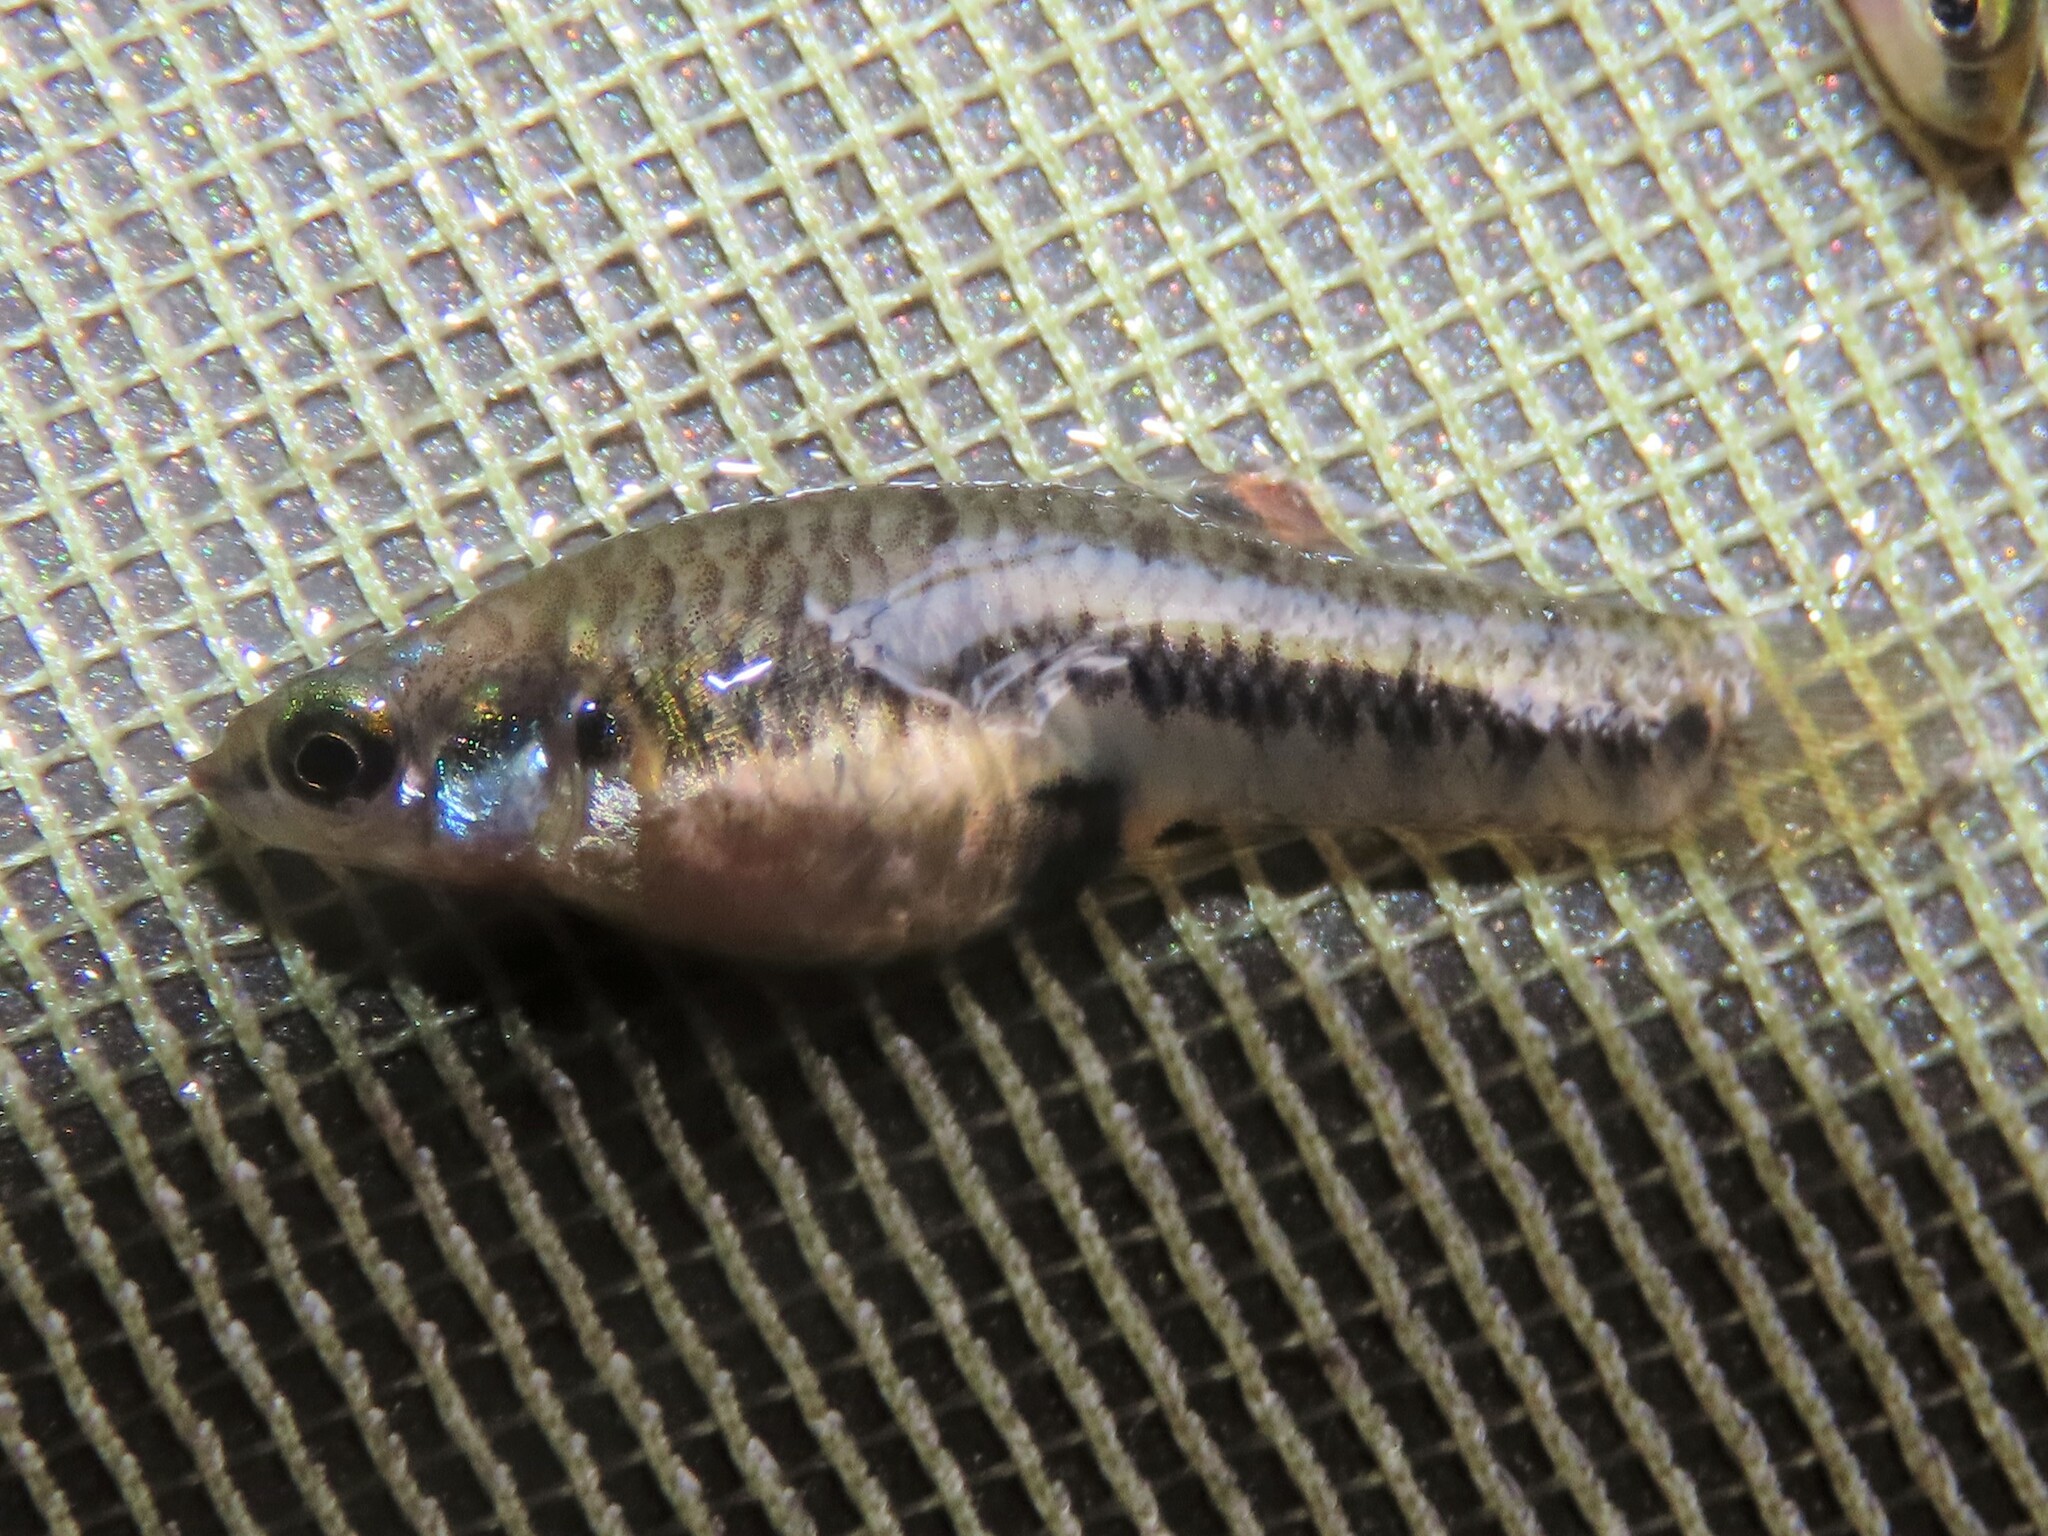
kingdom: Animalia
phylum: Chordata
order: Cyprinodontiformes
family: Poeciliidae
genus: Heterandria
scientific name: Heterandria formosa
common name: Least killifish
